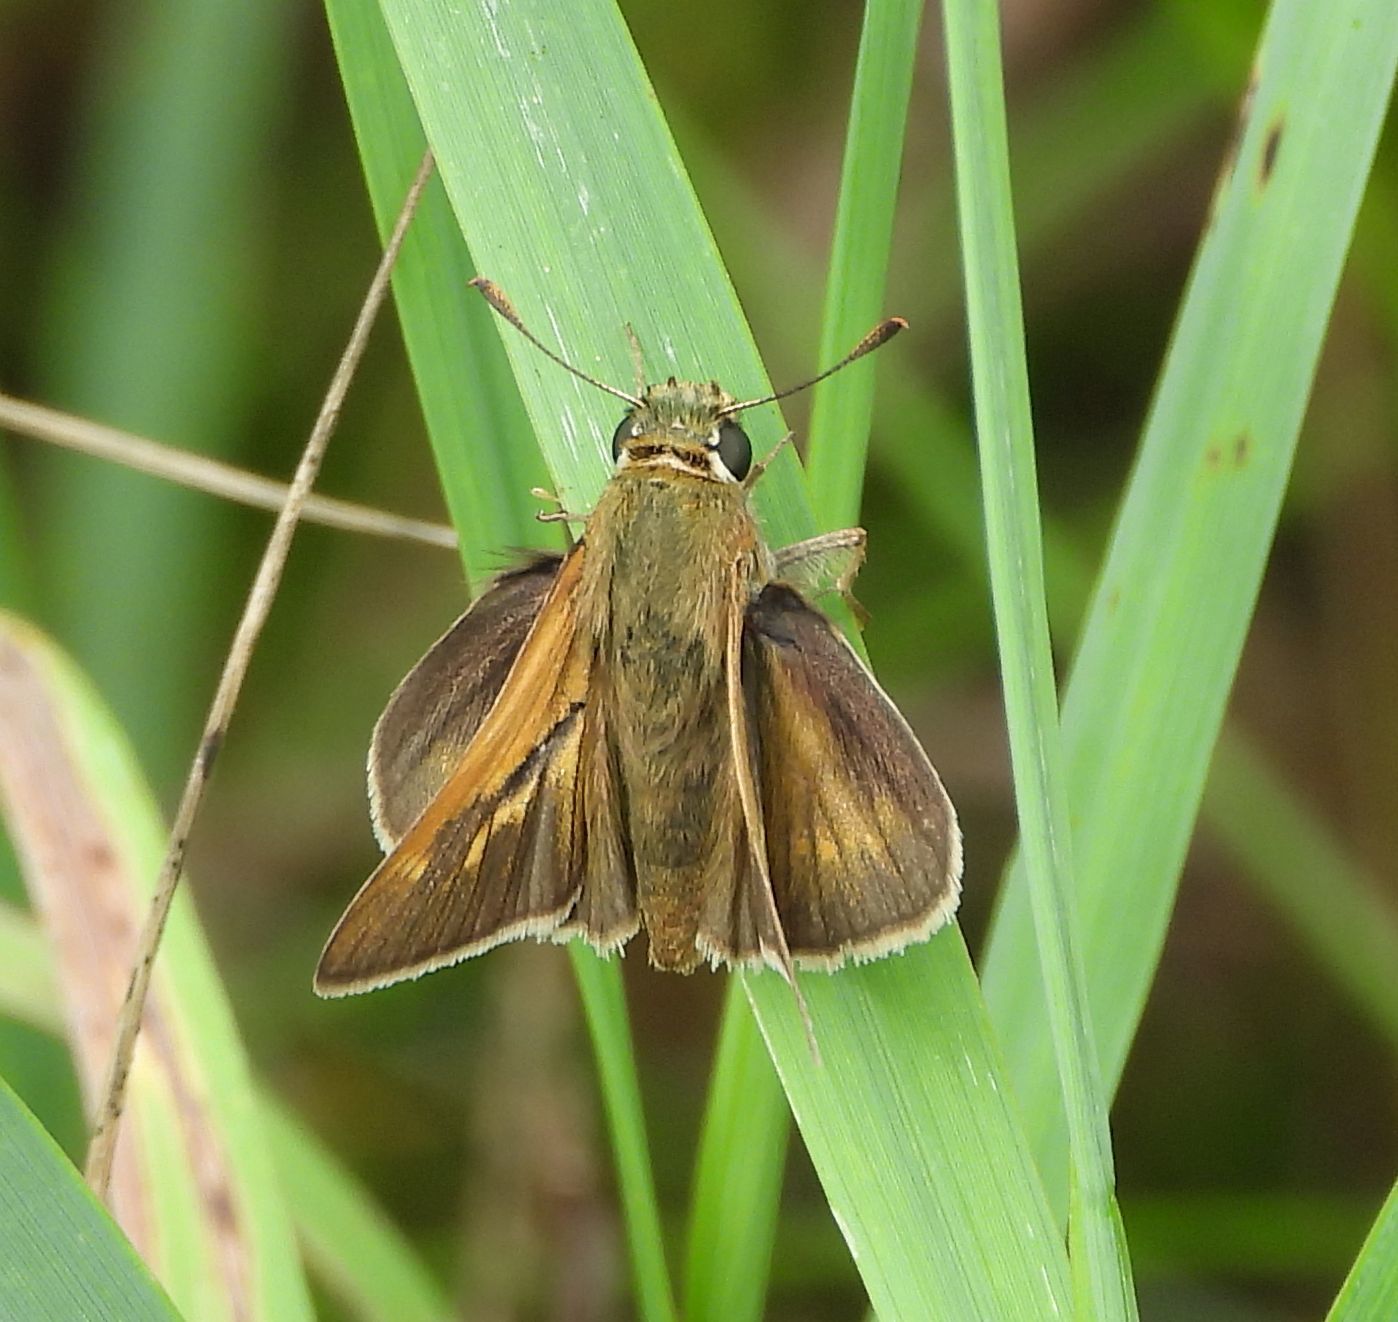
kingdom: Animalia
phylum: Arthropoda
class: Insecta
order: Lepidoptera
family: Hesperiidae
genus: Polites
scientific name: Polites origenes
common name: Crossline skipper
